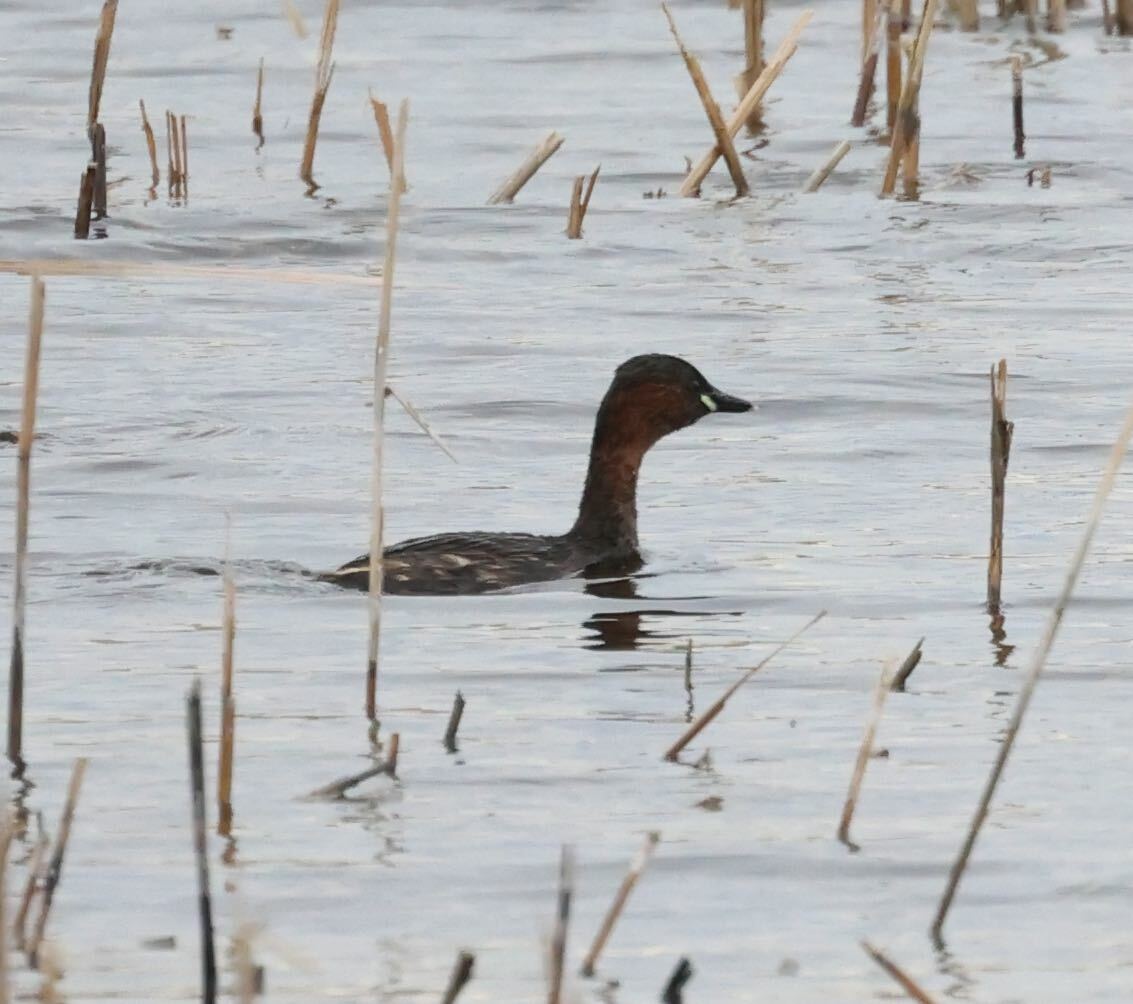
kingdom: Animalia
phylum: Chordata
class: Aves
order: Podicipediformes
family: Podicipedidae
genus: Tachybaptus
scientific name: Tachybaptus ruficollis
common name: Little grebe
